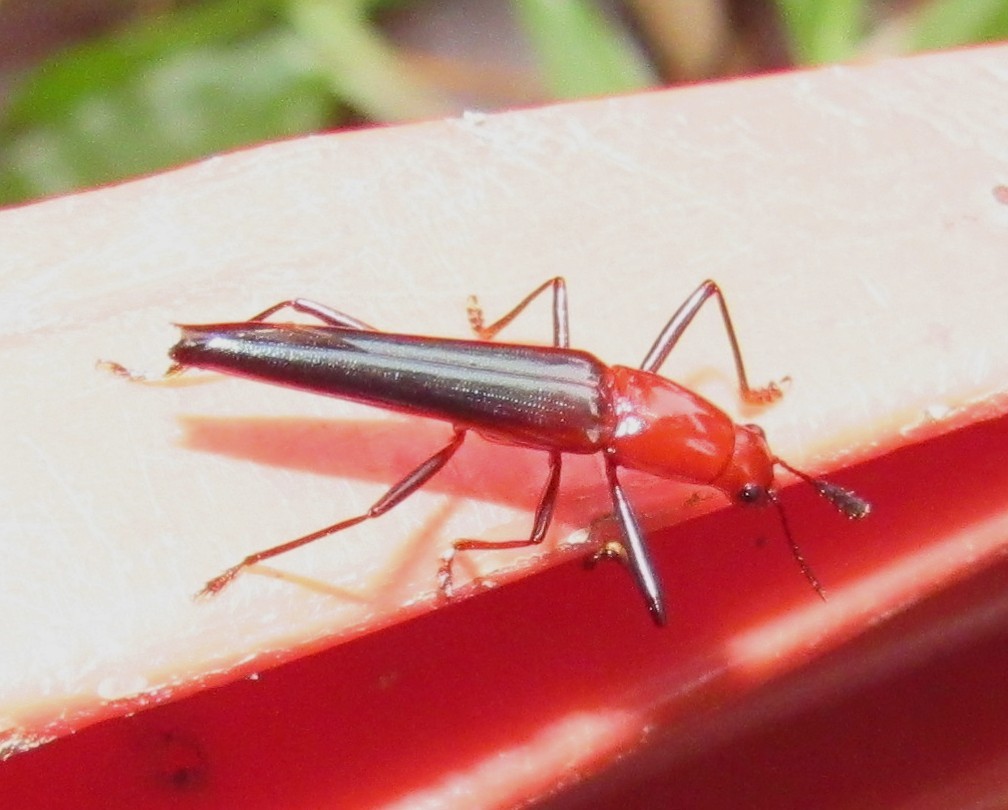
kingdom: Animalia
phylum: Arthropoda
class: Insecta
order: Coleoptera
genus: Compsolanguria
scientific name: Compsolanguria
